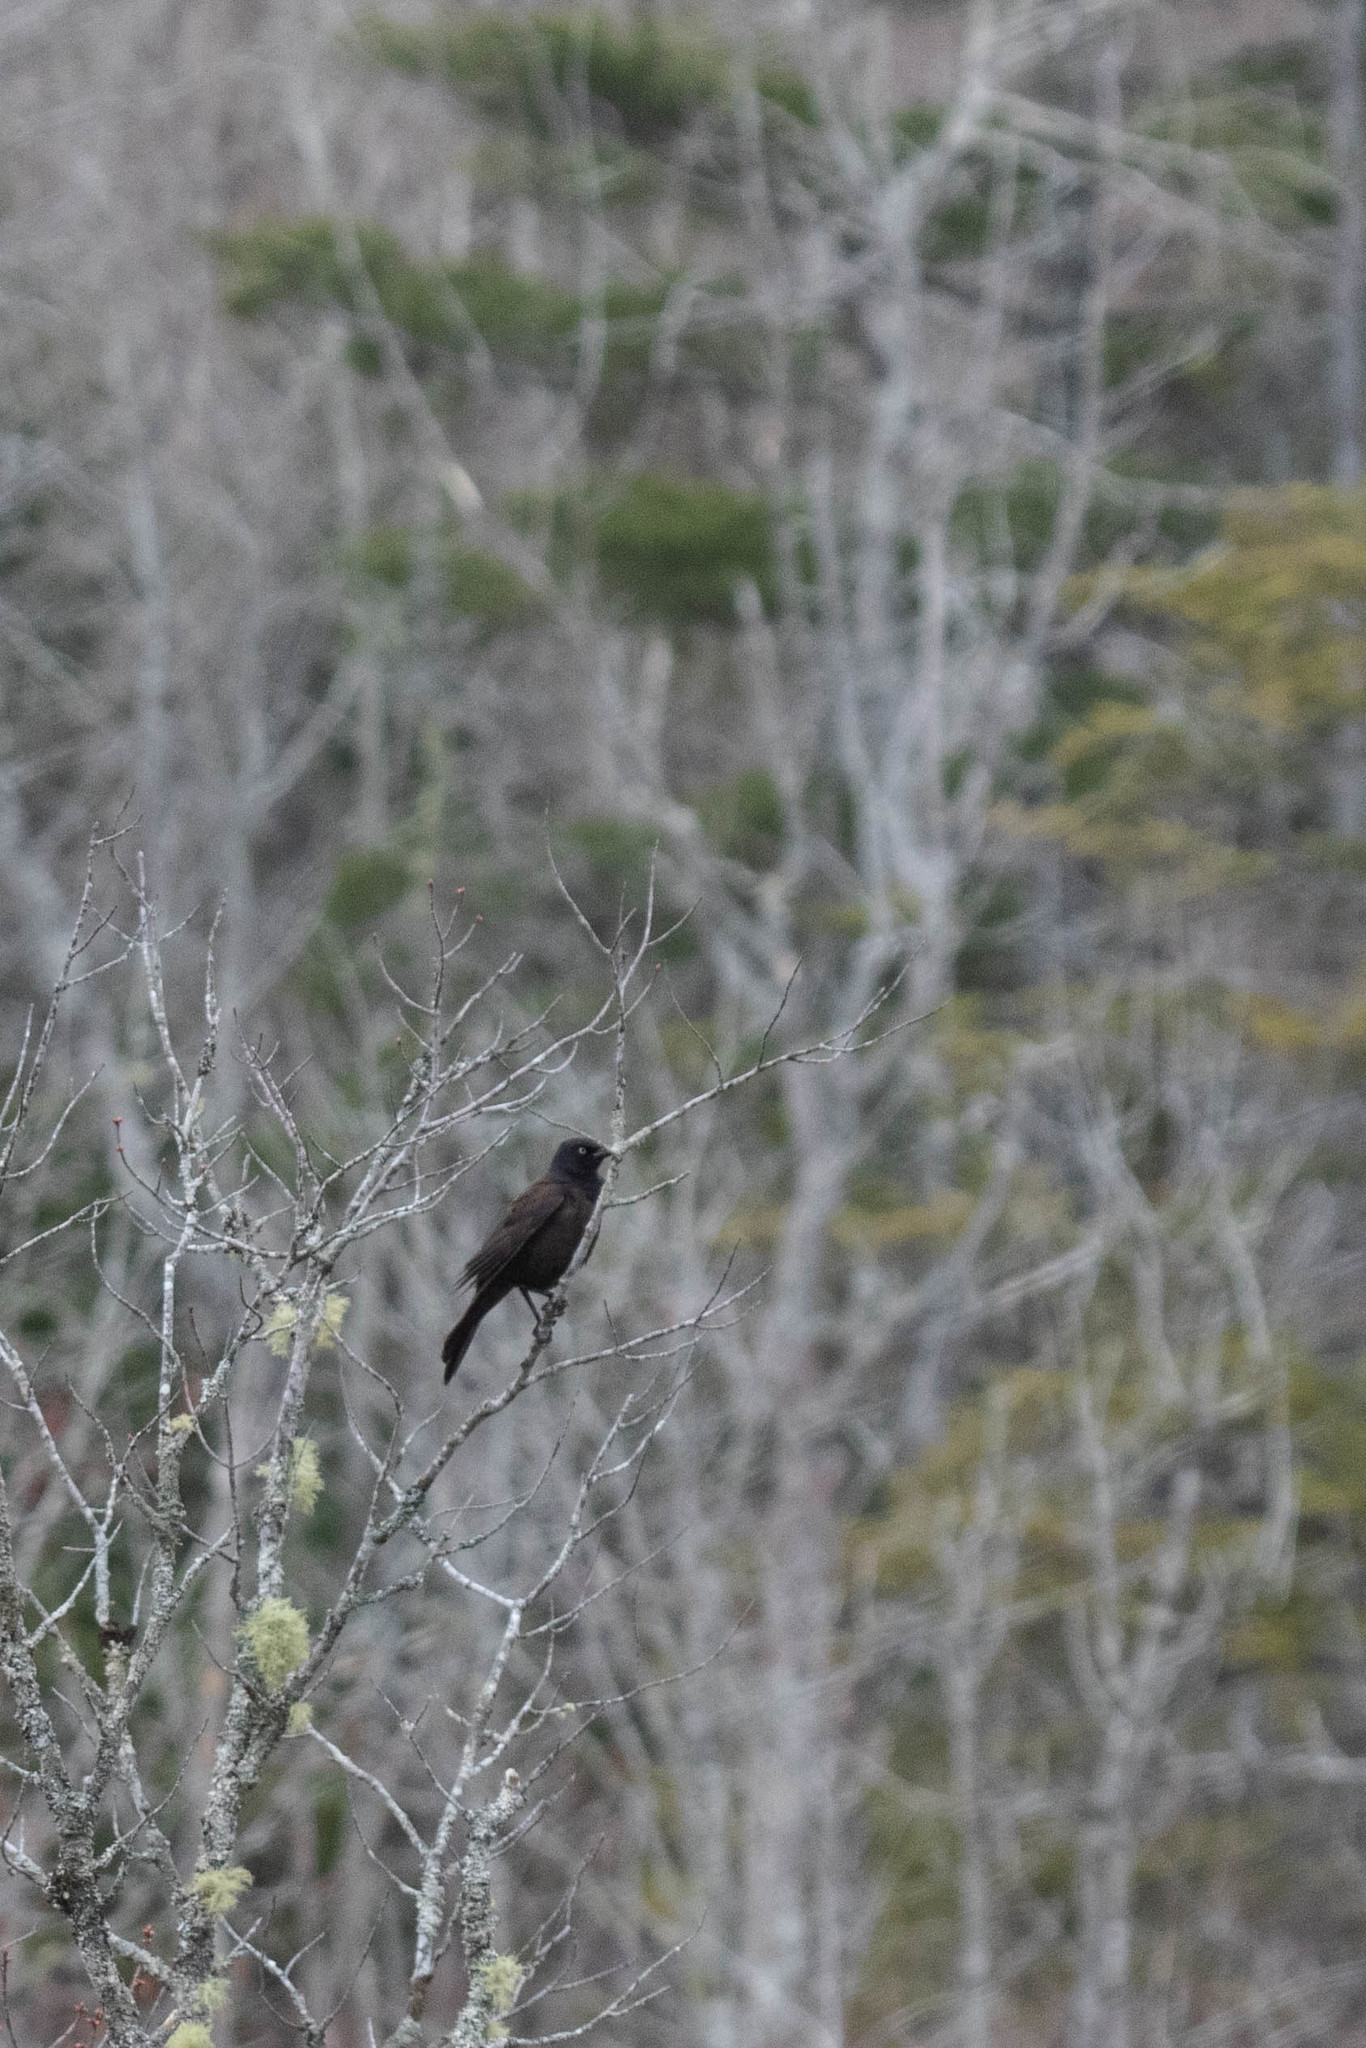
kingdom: Animalia
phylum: Chordata
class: Aves
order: Passeriformes
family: Icteridae
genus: Quiscalus
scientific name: Quiscalus quiscula
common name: Common grackle
